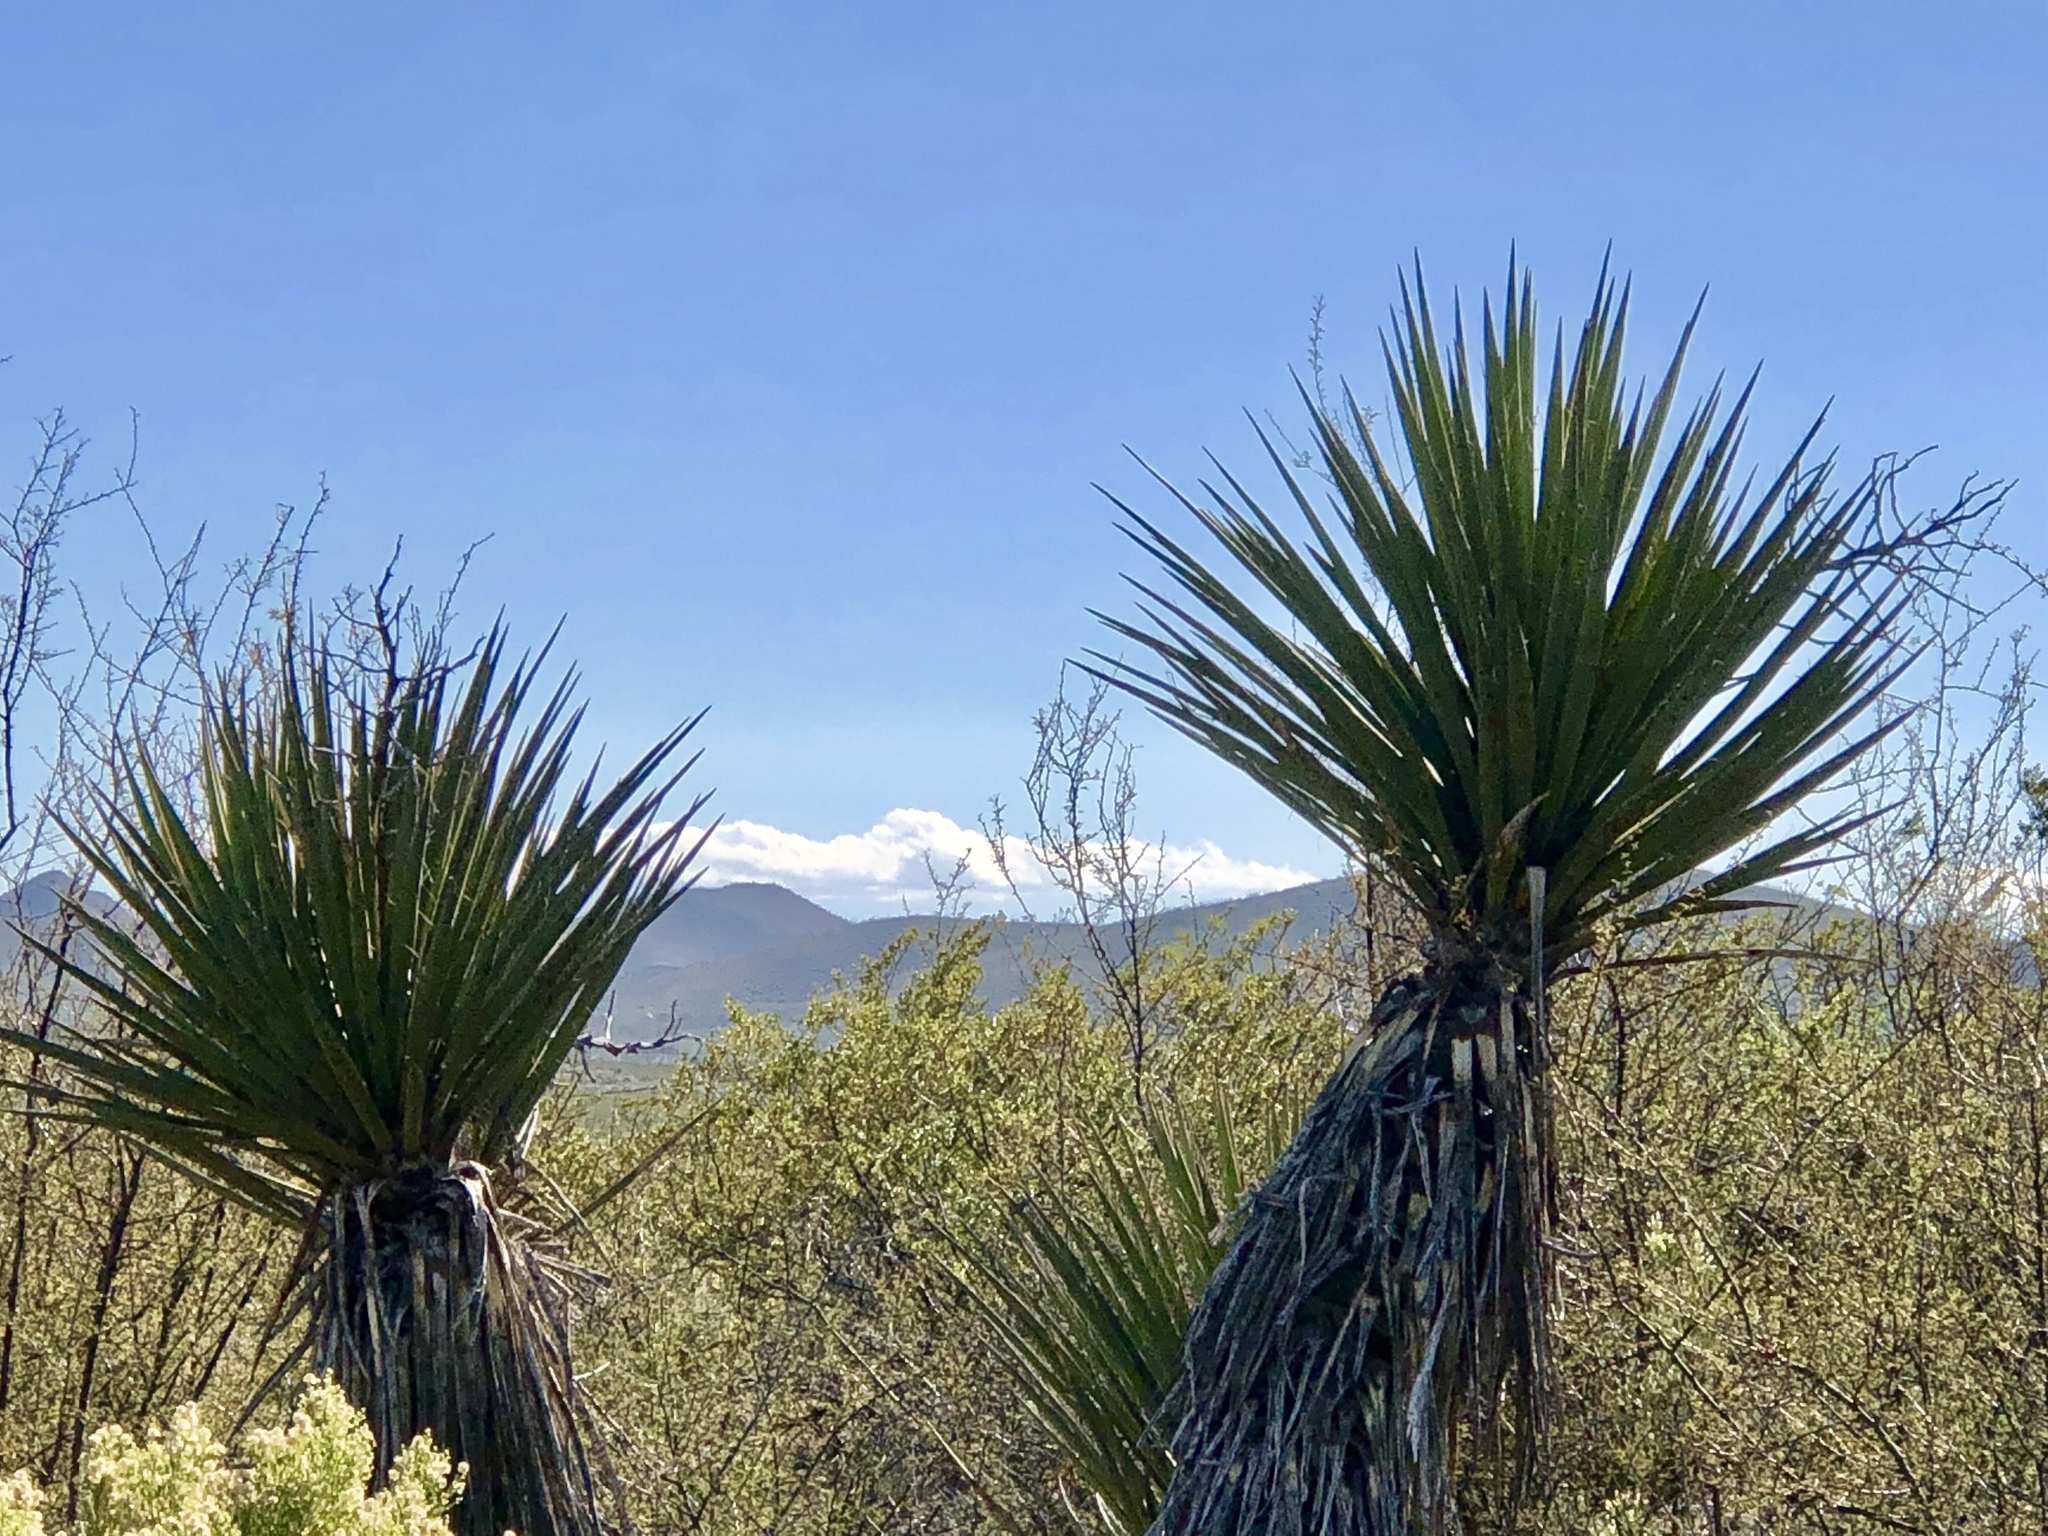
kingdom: Plantae
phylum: Tracheophyta
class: Liliopsida
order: Asparagales
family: Asparagaceae
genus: Yucca
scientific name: Yucca schottii
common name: Hoary yucca
